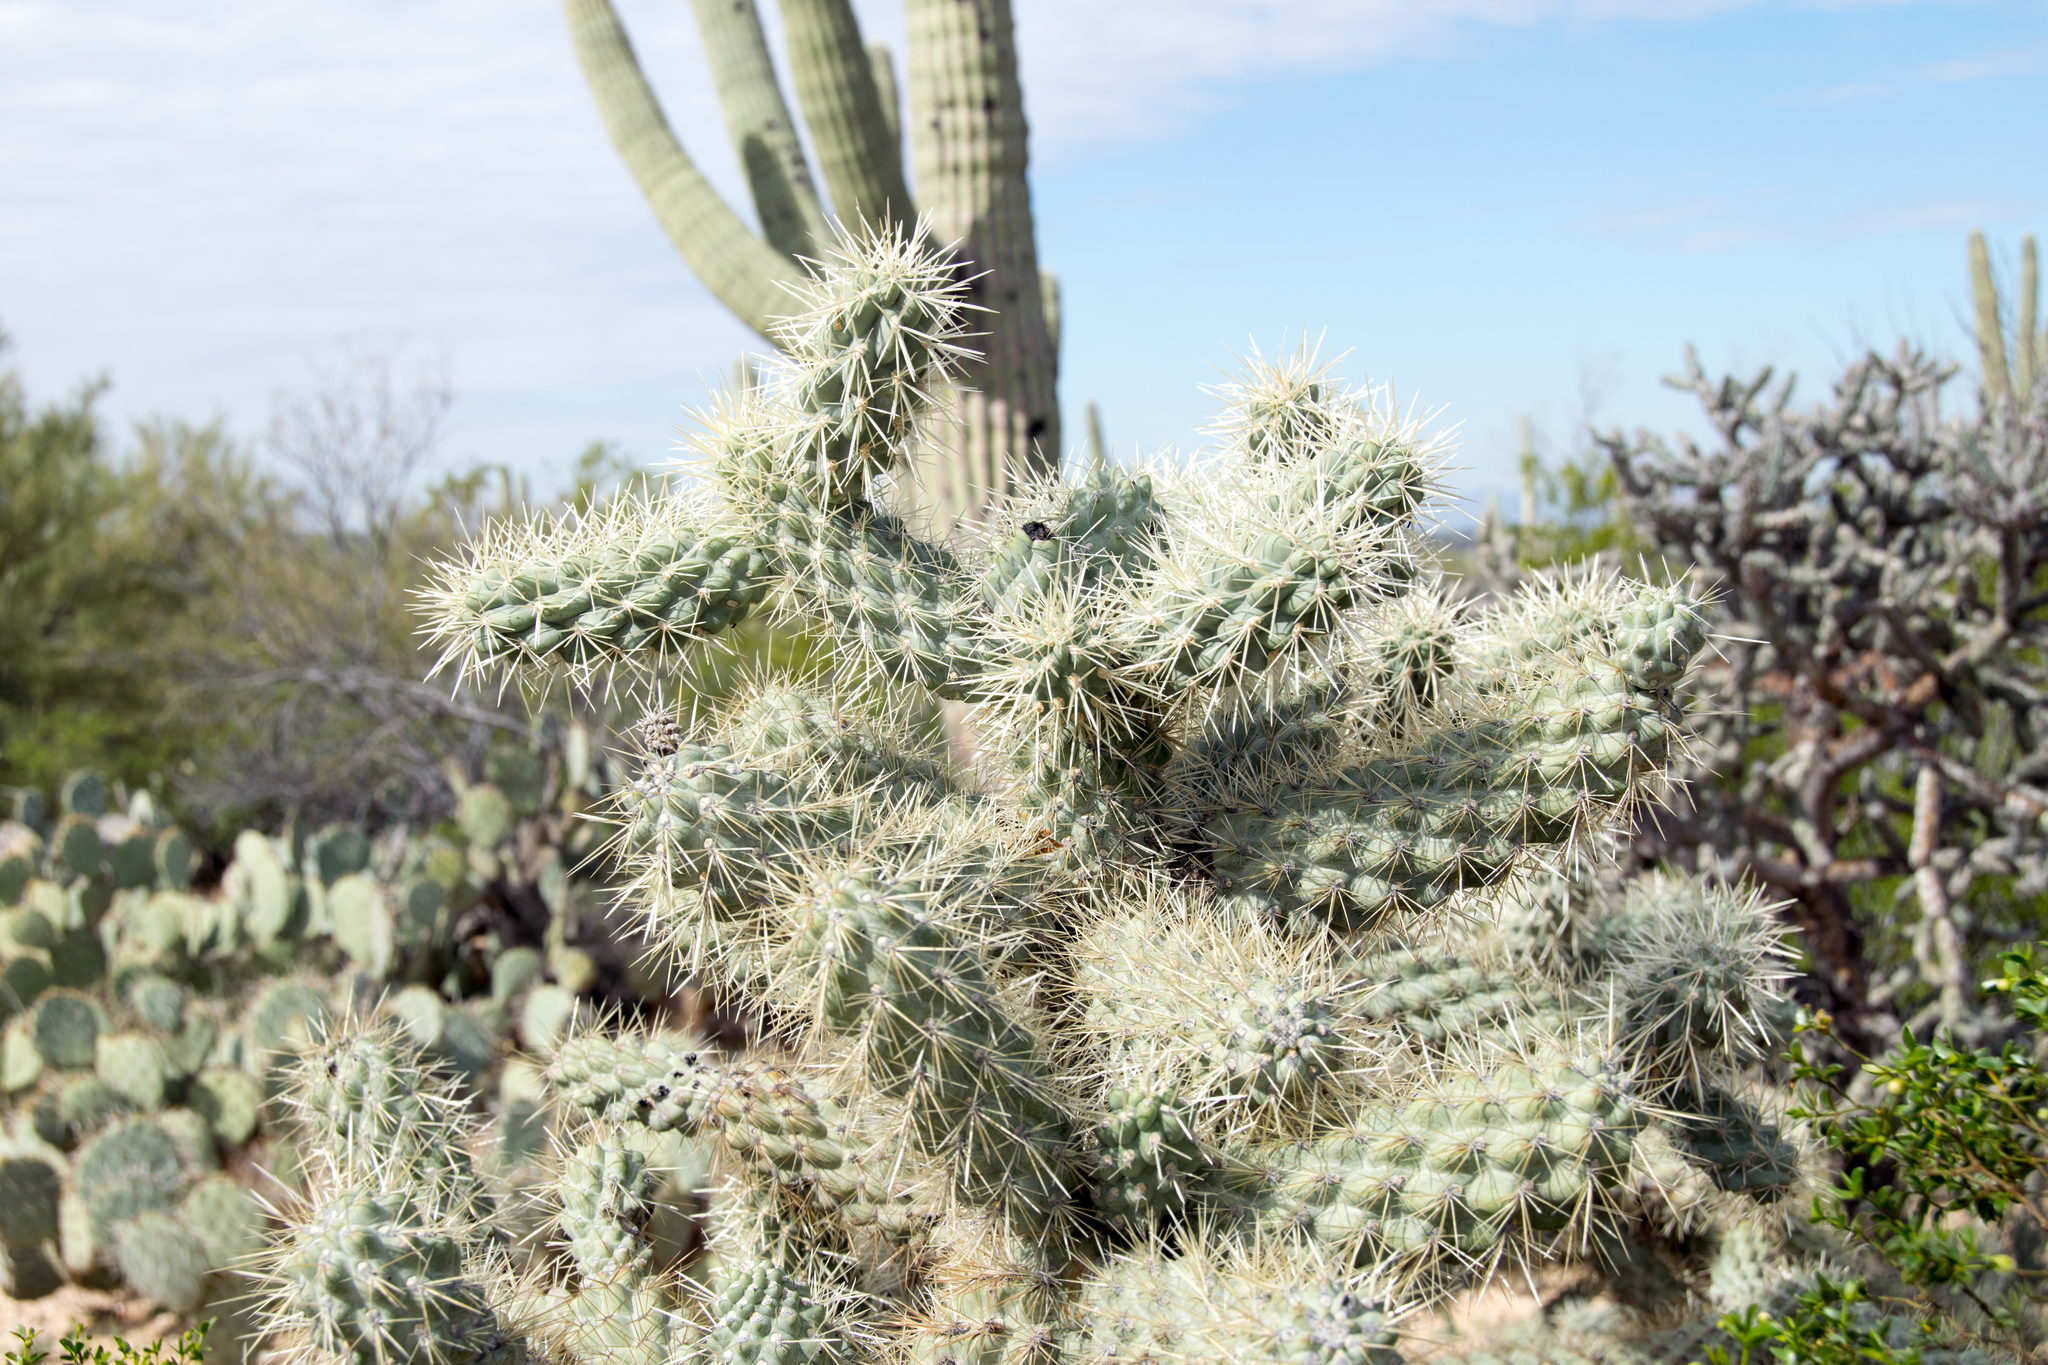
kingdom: Plantae
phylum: Tracheophyta
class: Magnoliopsida
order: Caryophyllales
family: Cactaceae
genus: Cylindropuntia
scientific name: Cylindropuntia fulgida
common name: Jumping cholla
